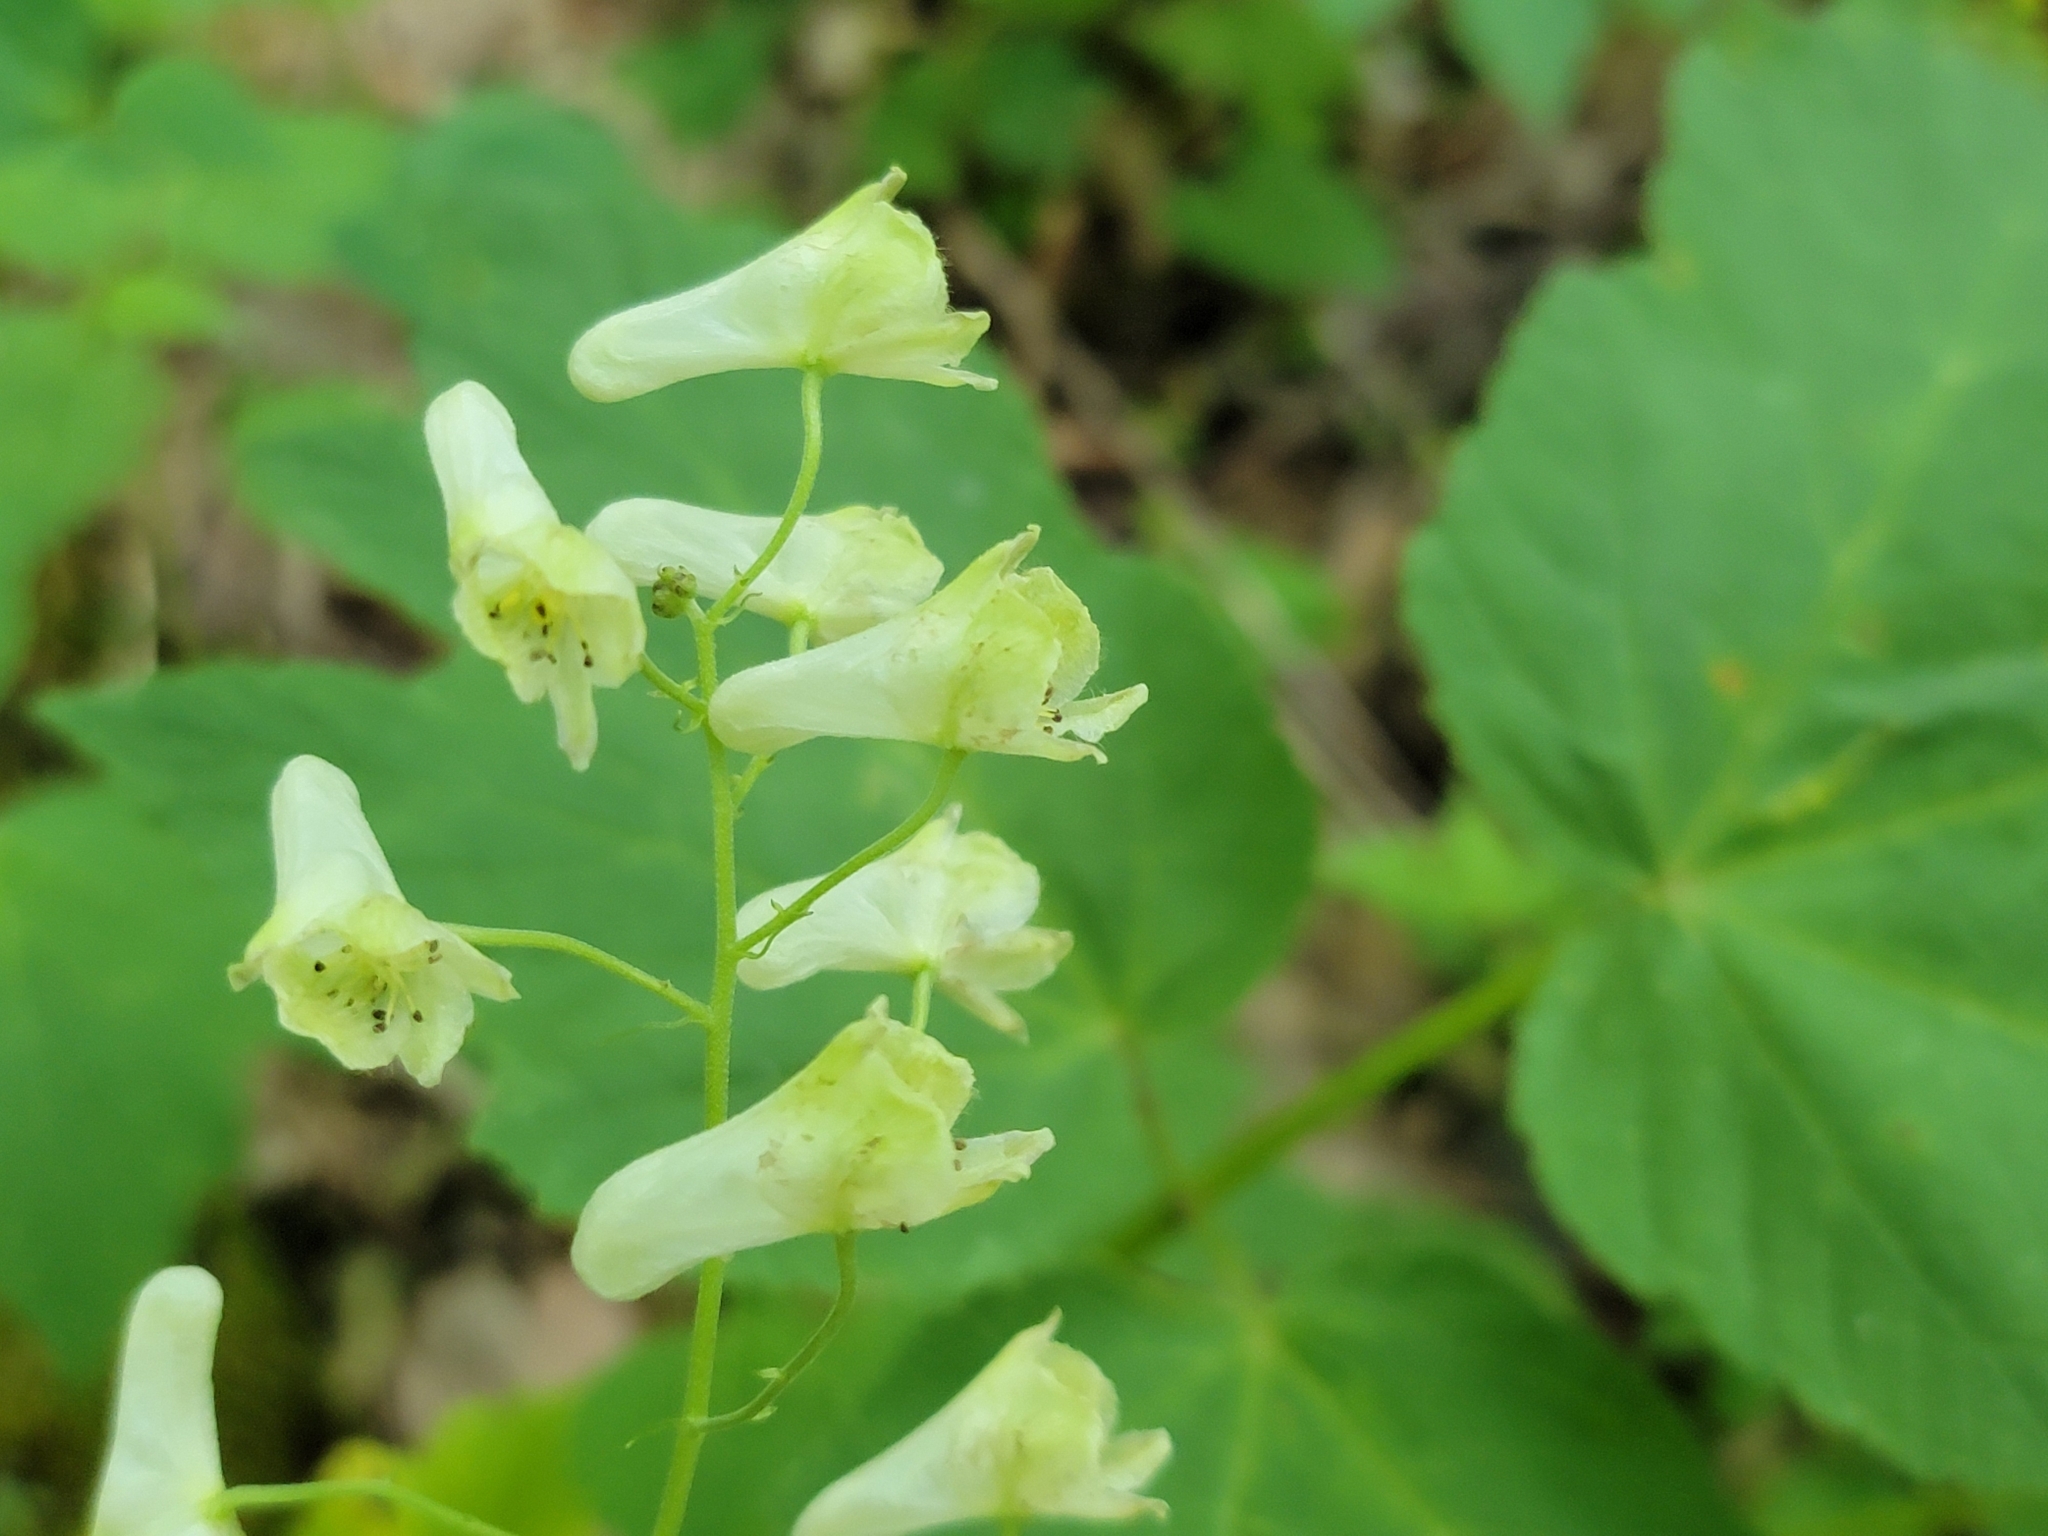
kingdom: Plantae
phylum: Tracheophyta
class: Magnoliopsida
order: Ranunculales
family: Ranunculaceae
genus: Aconitum
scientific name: Aconitum reclinatum
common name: Trailing wolfsbane
